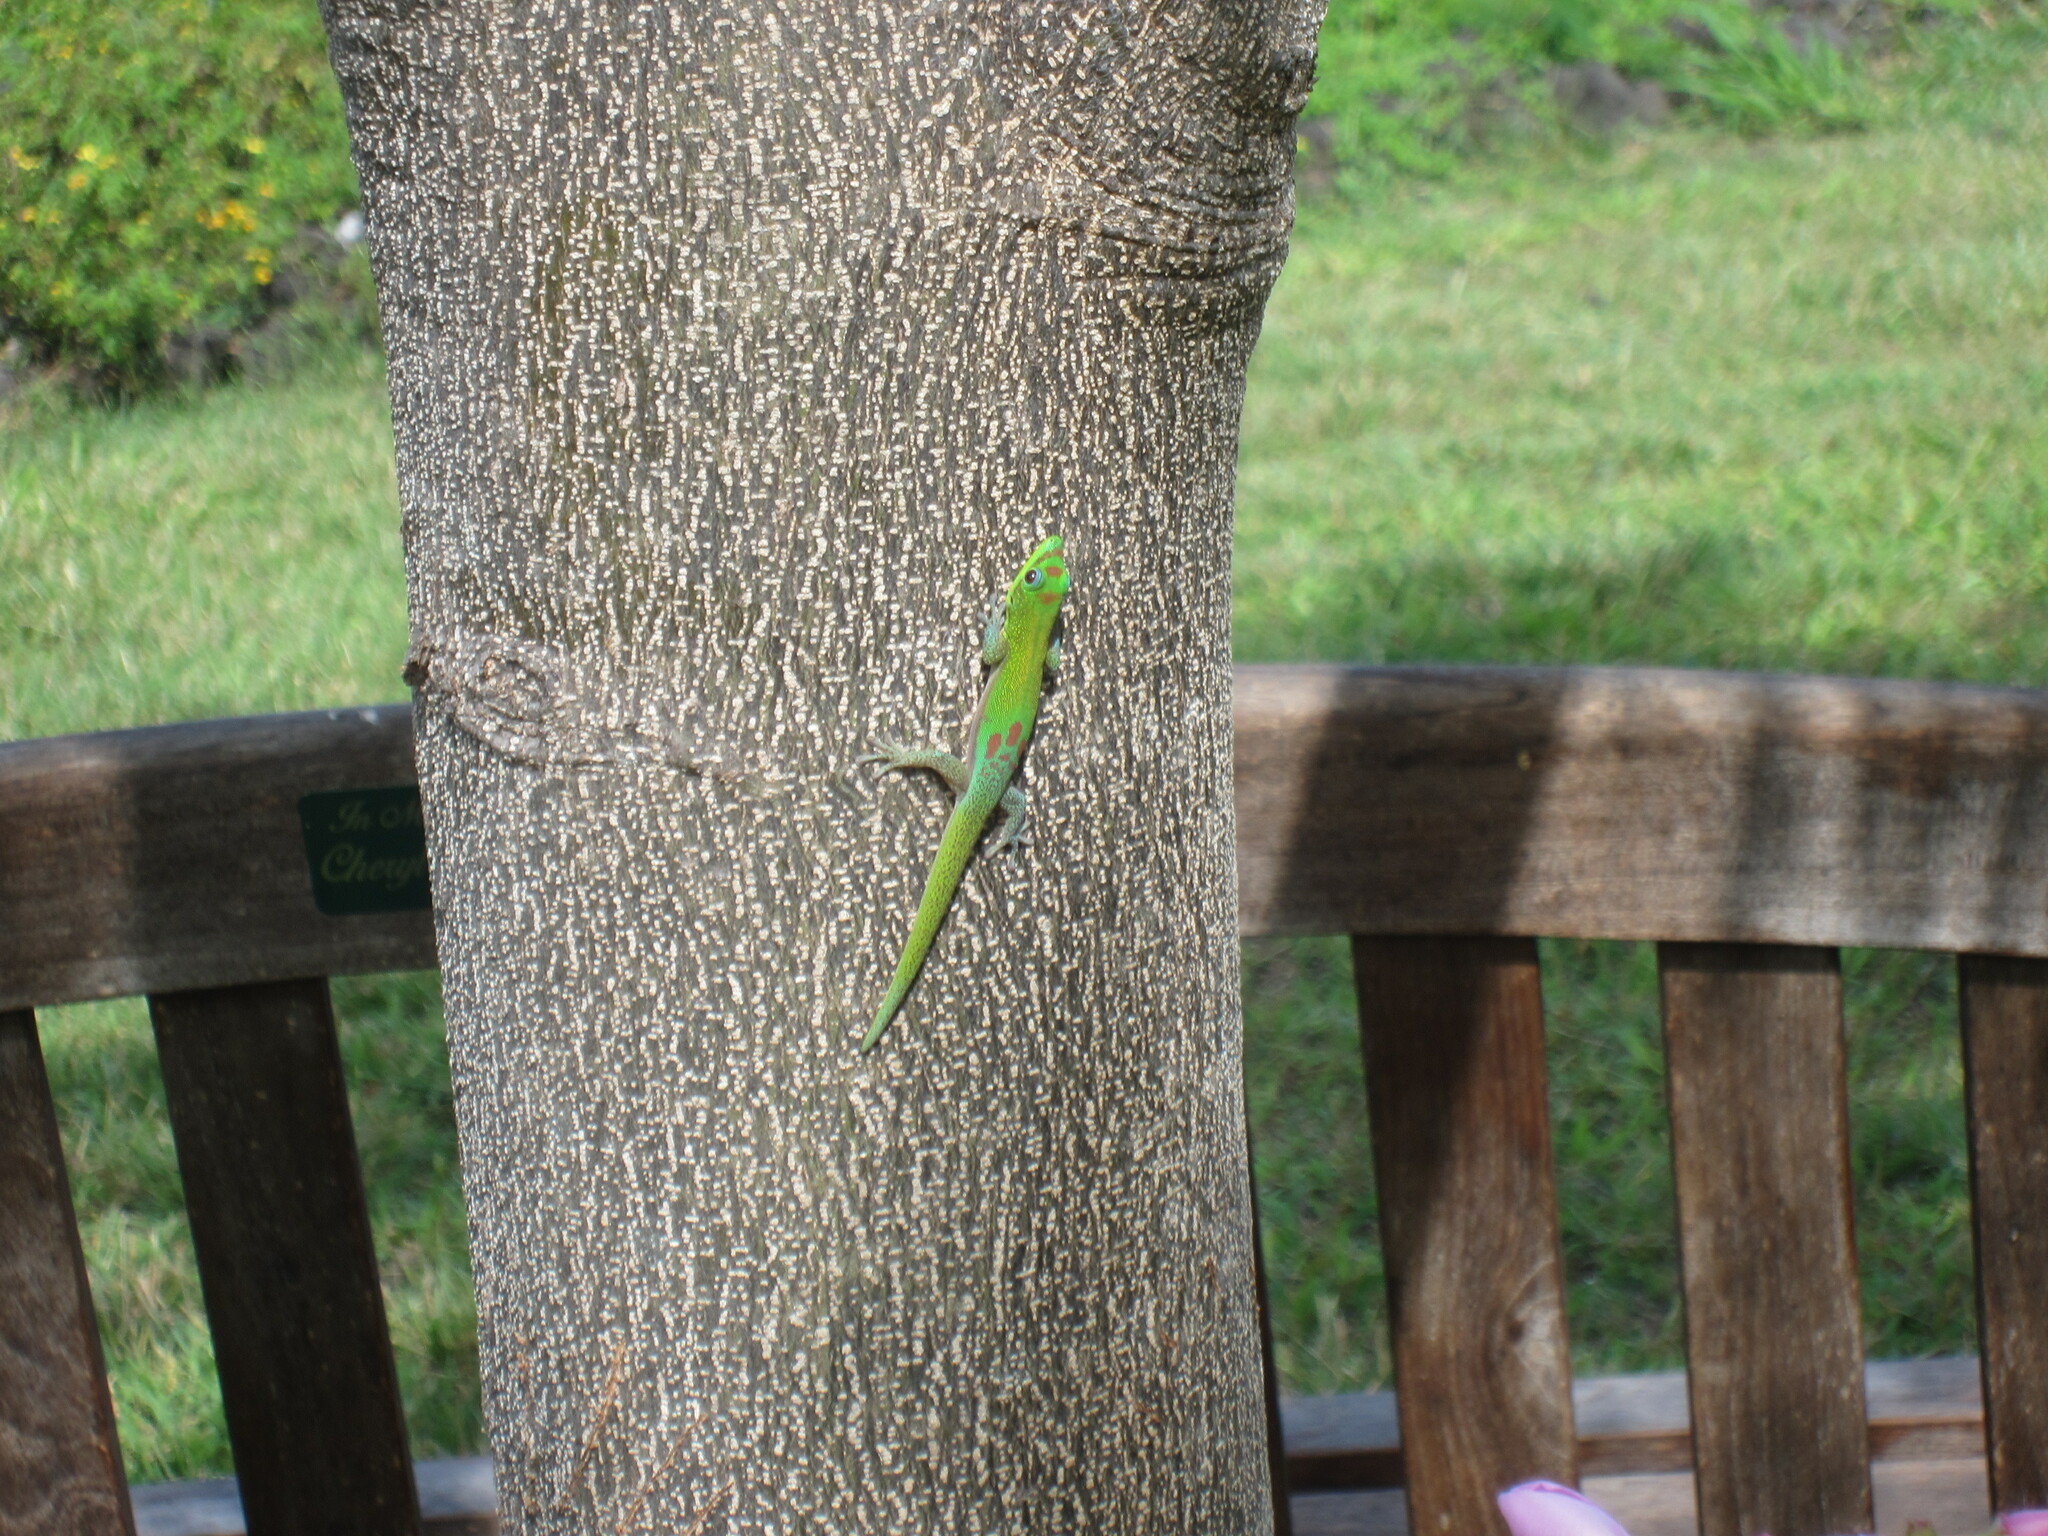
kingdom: Animalia
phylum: Chordata
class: Squamata
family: Gekkonidae
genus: Phelsuma
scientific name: Phelsuma laticauda
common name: Gold dust day gecko
